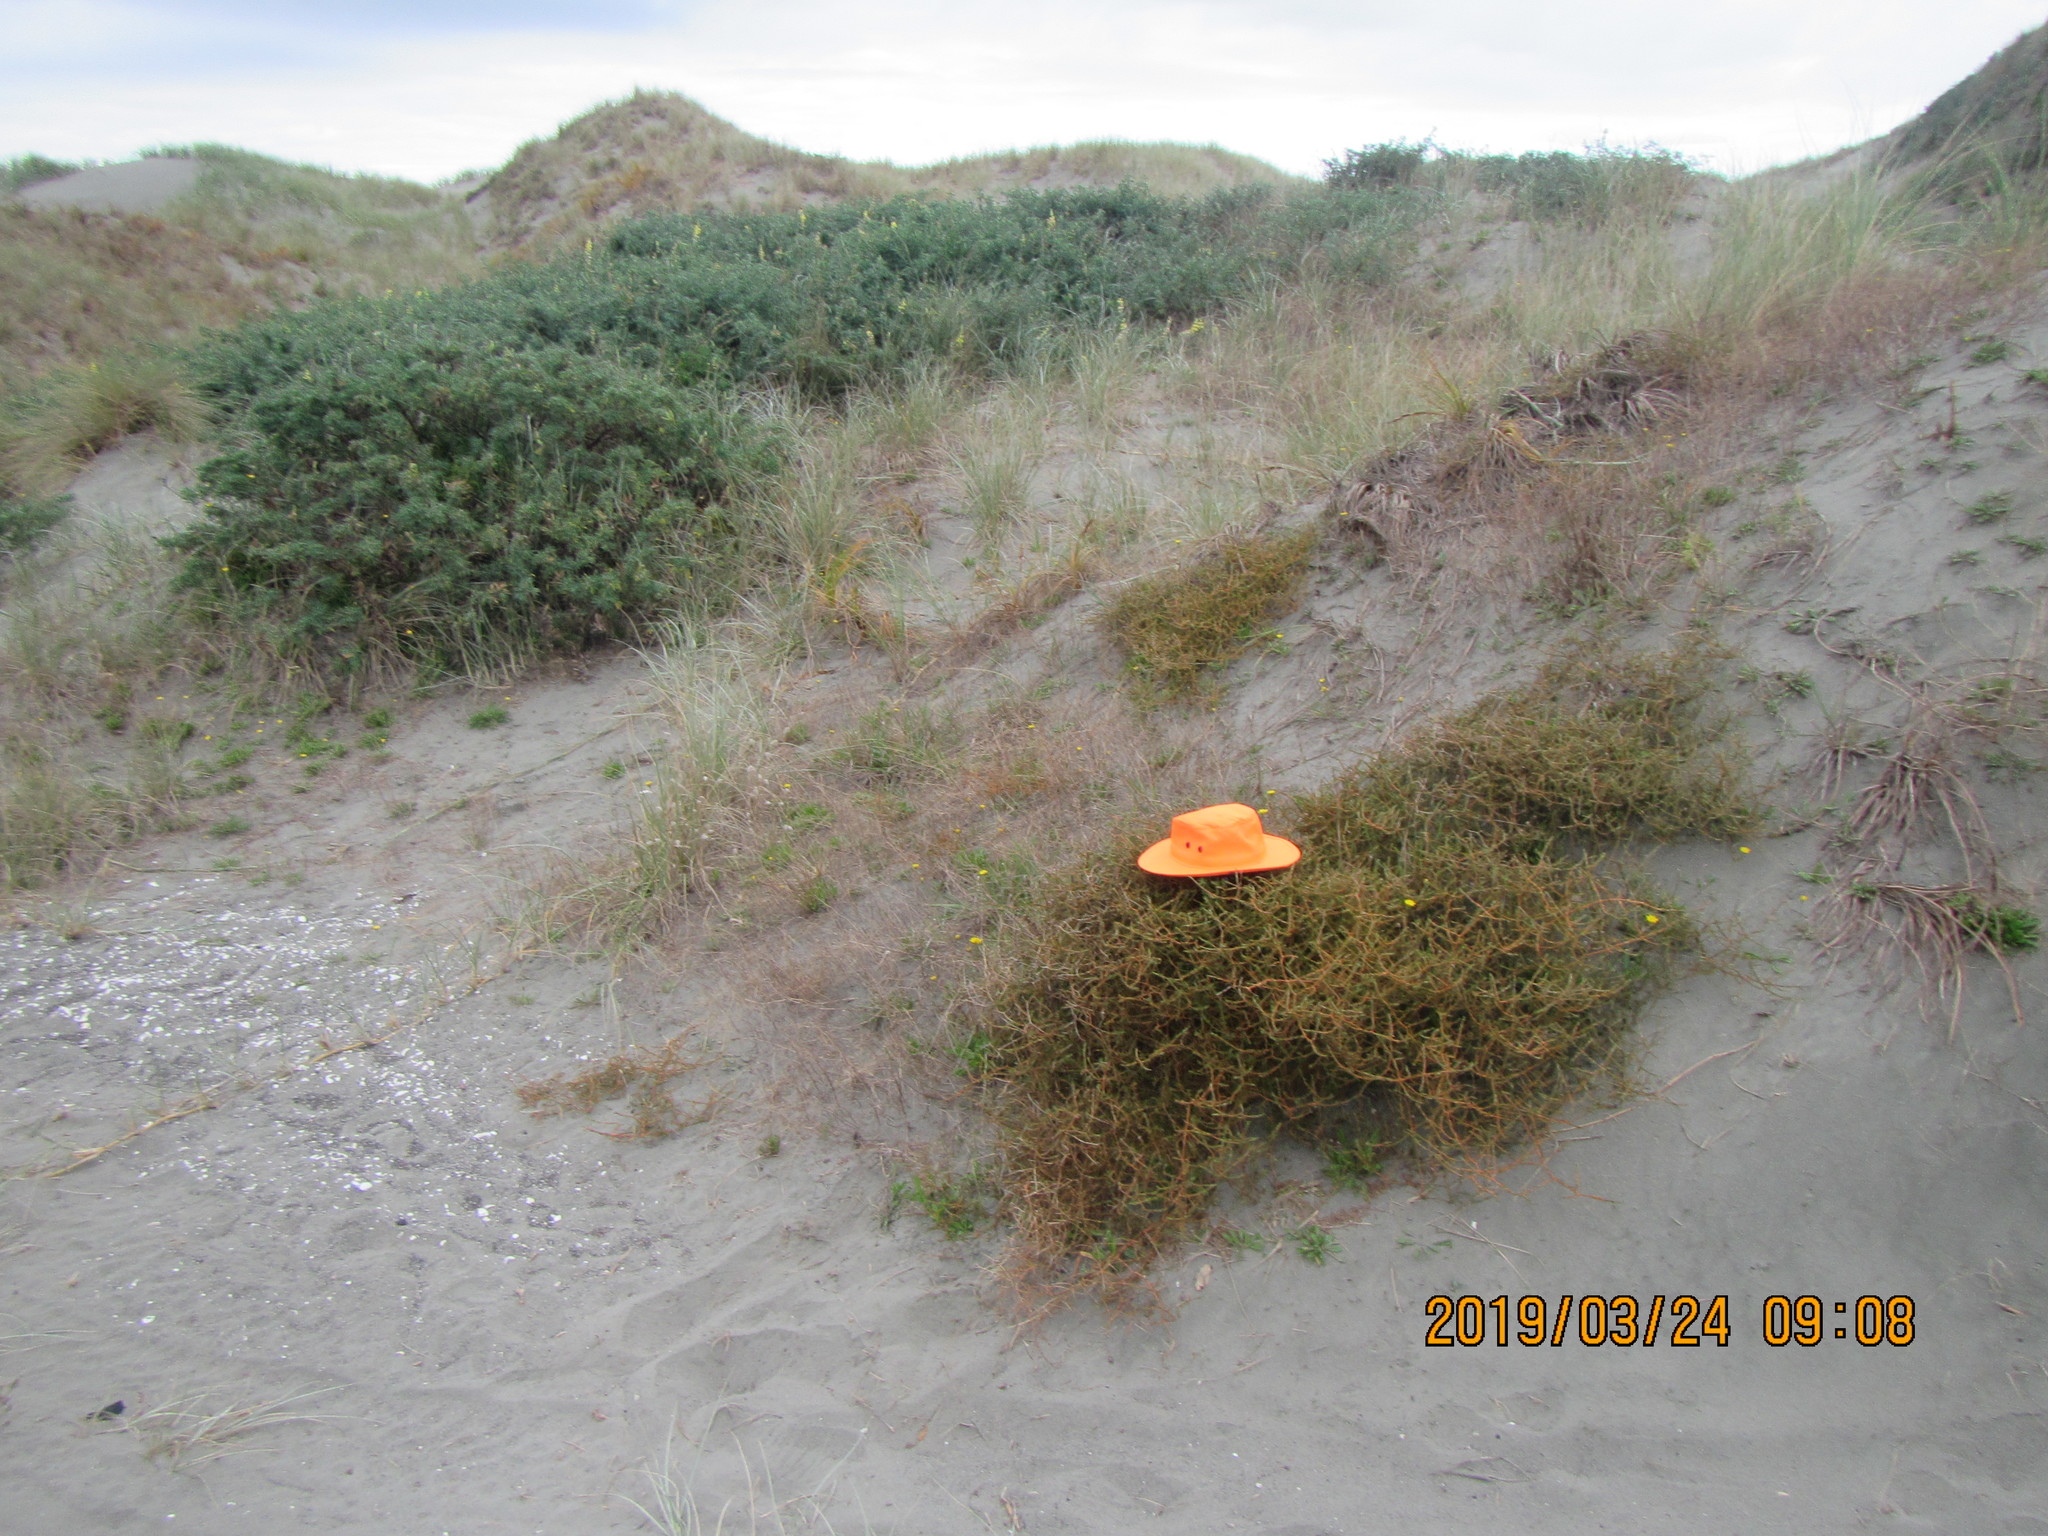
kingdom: Plantae
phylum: Tracheophyta
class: Magnoliopsida
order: Gentianales
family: Rubiaceae
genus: Coprosma
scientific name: Coprosma acerosa
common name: Sand coprosma
